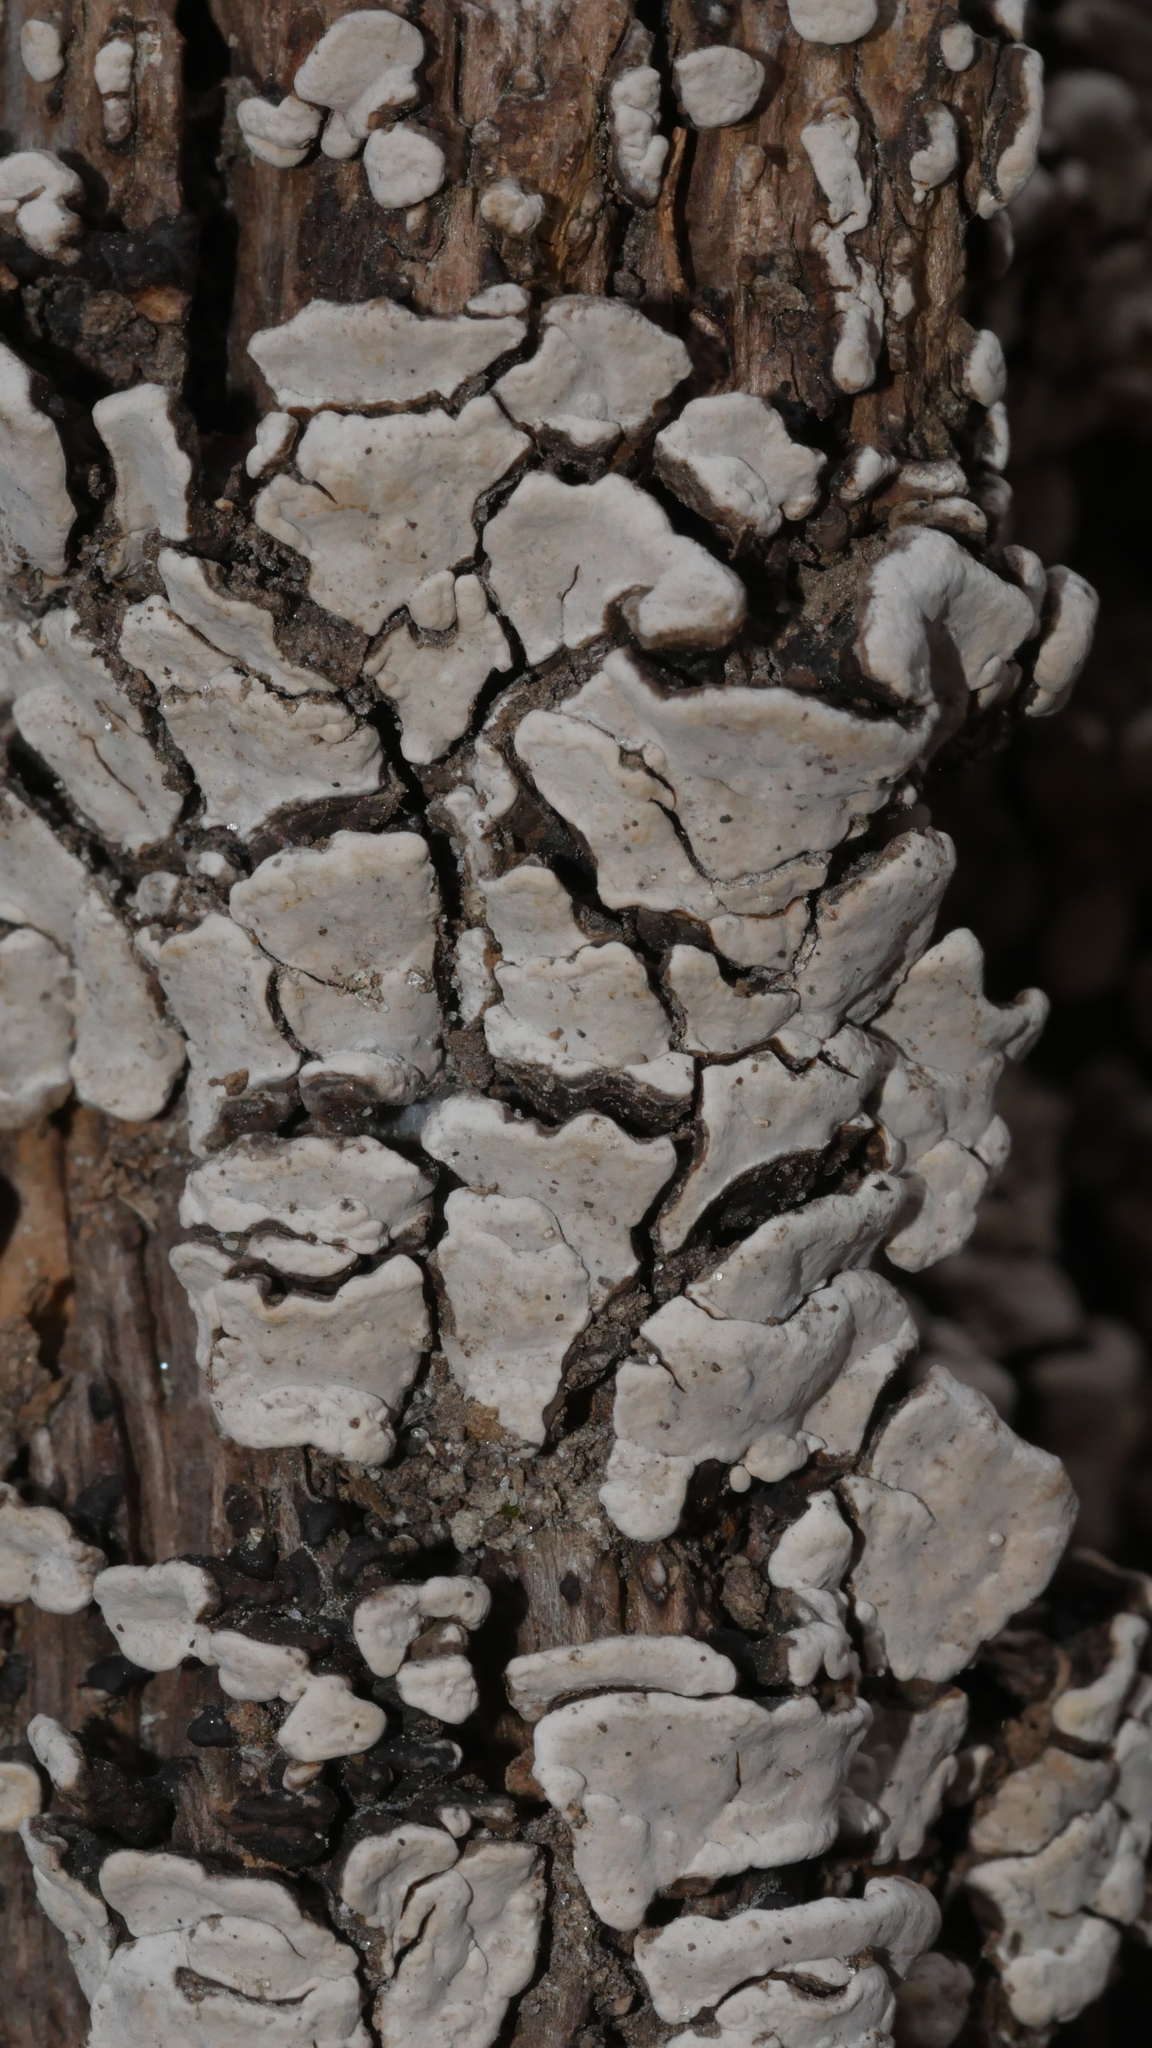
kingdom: Fungi
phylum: Basidiomycota
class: Agaricomycetes
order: Russulales
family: Stereaceae
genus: Xylobolus
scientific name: Xylobolus frustulatus
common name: Ceramic parchment
